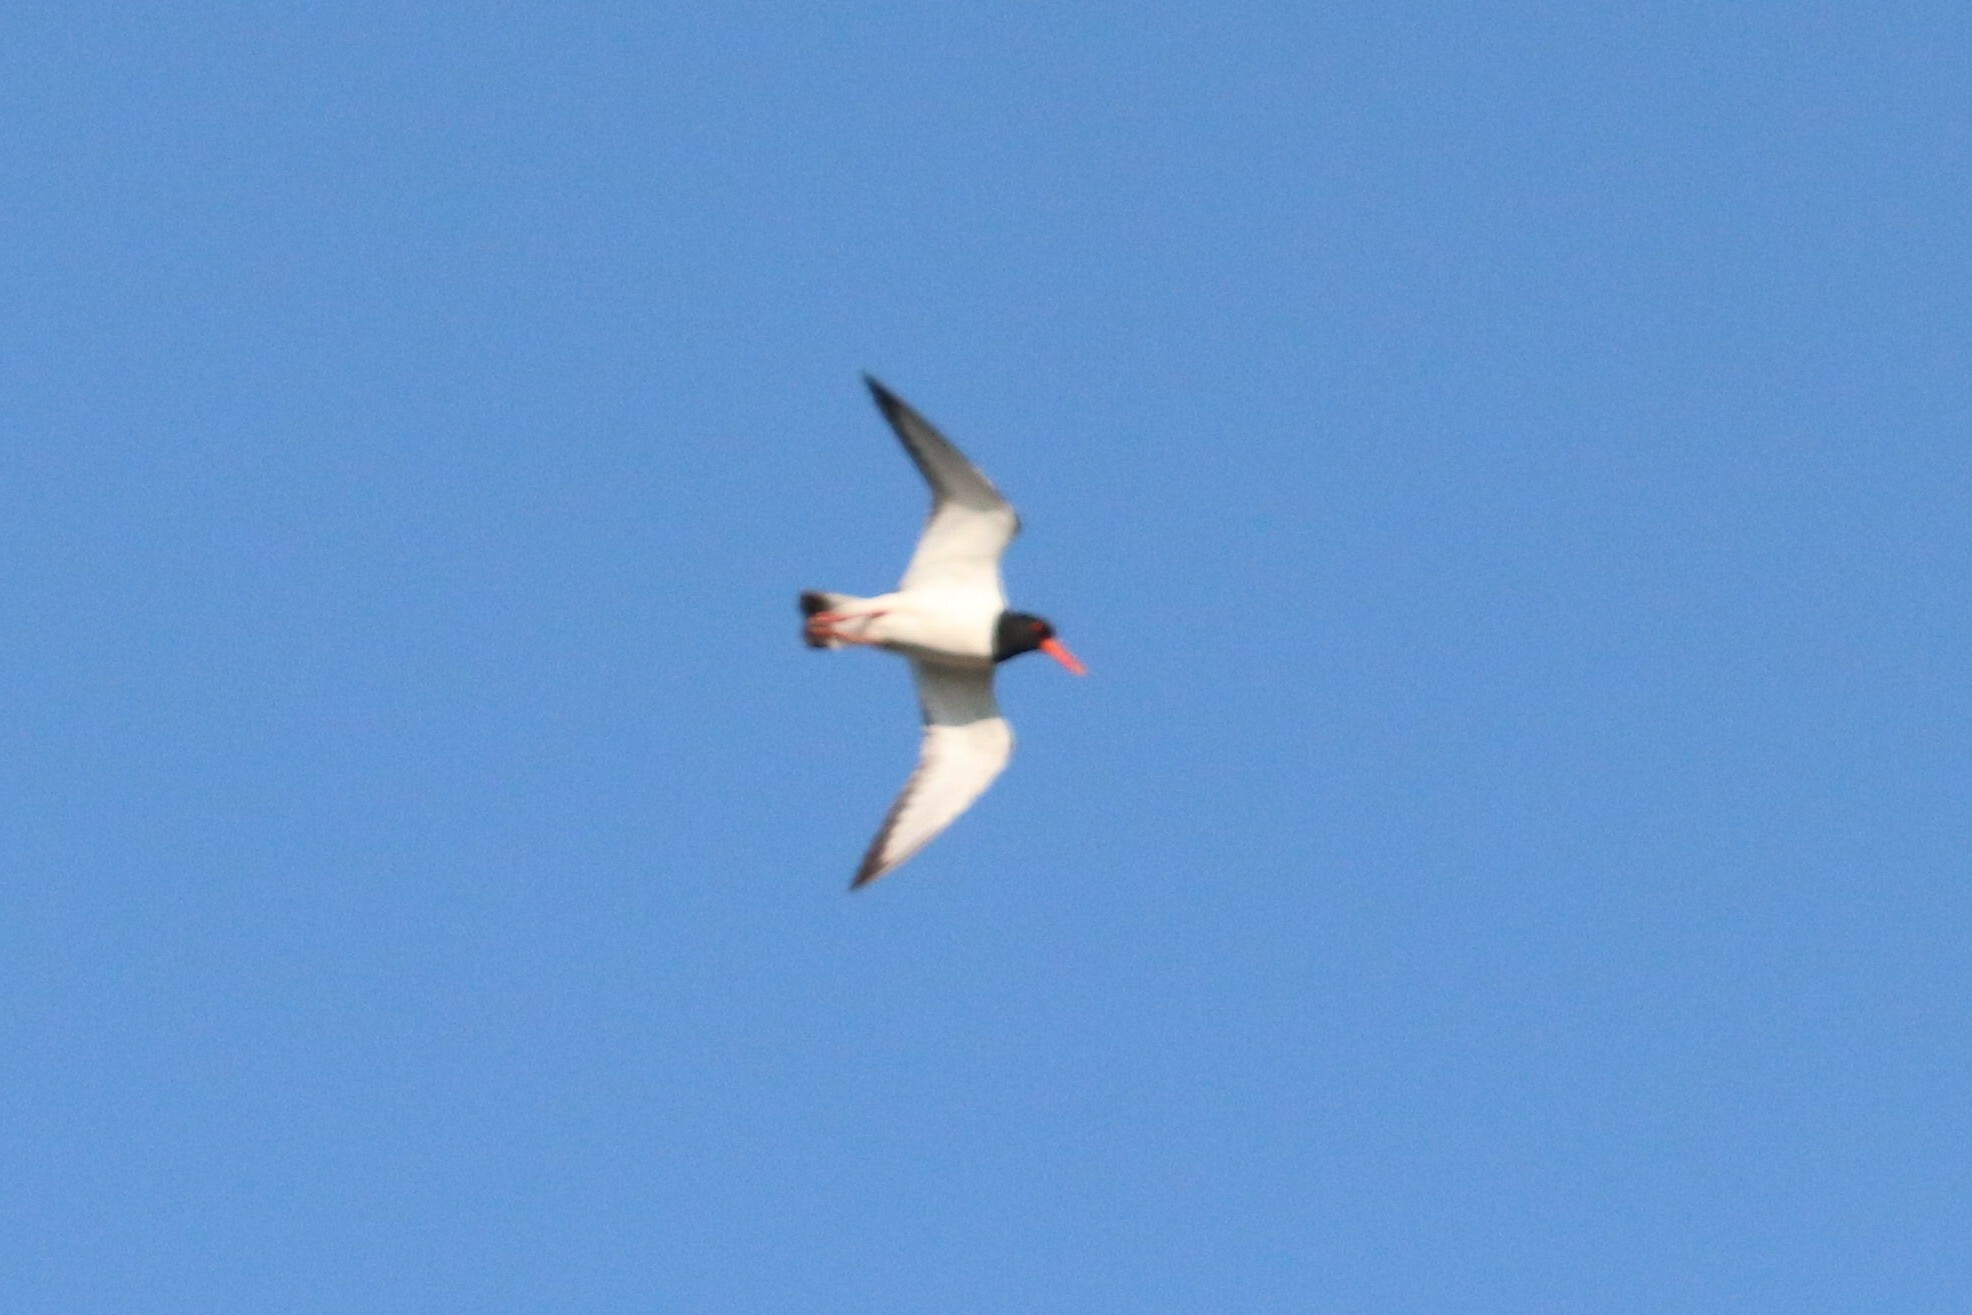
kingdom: Animalia
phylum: Chordata
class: Aves
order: Charadriiformes
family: Haematopodidae
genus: Haematopus
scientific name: Haematopus ostralegus
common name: Eurasian oystercatcher
